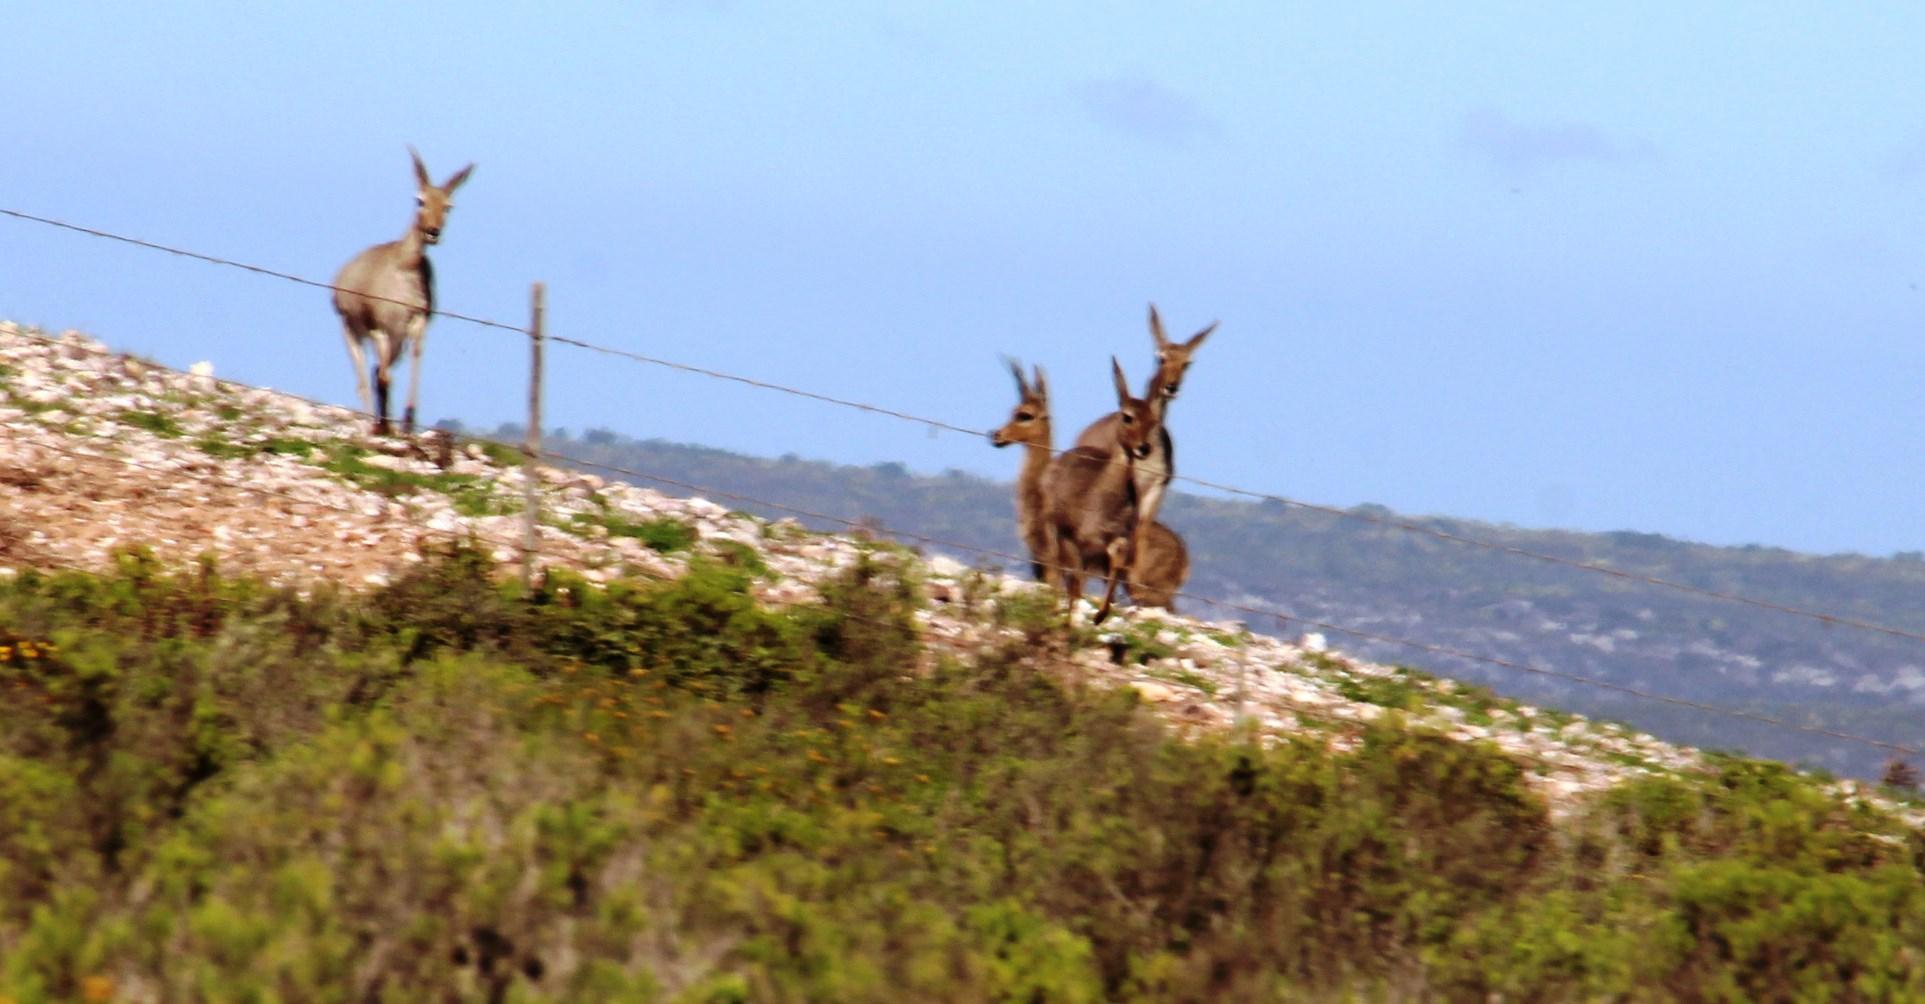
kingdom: Animalia
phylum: Chordata
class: Mammalia
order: Artiodactyla
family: Bovidae
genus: Pelea
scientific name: Pelea capreolus
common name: Common rhebok
